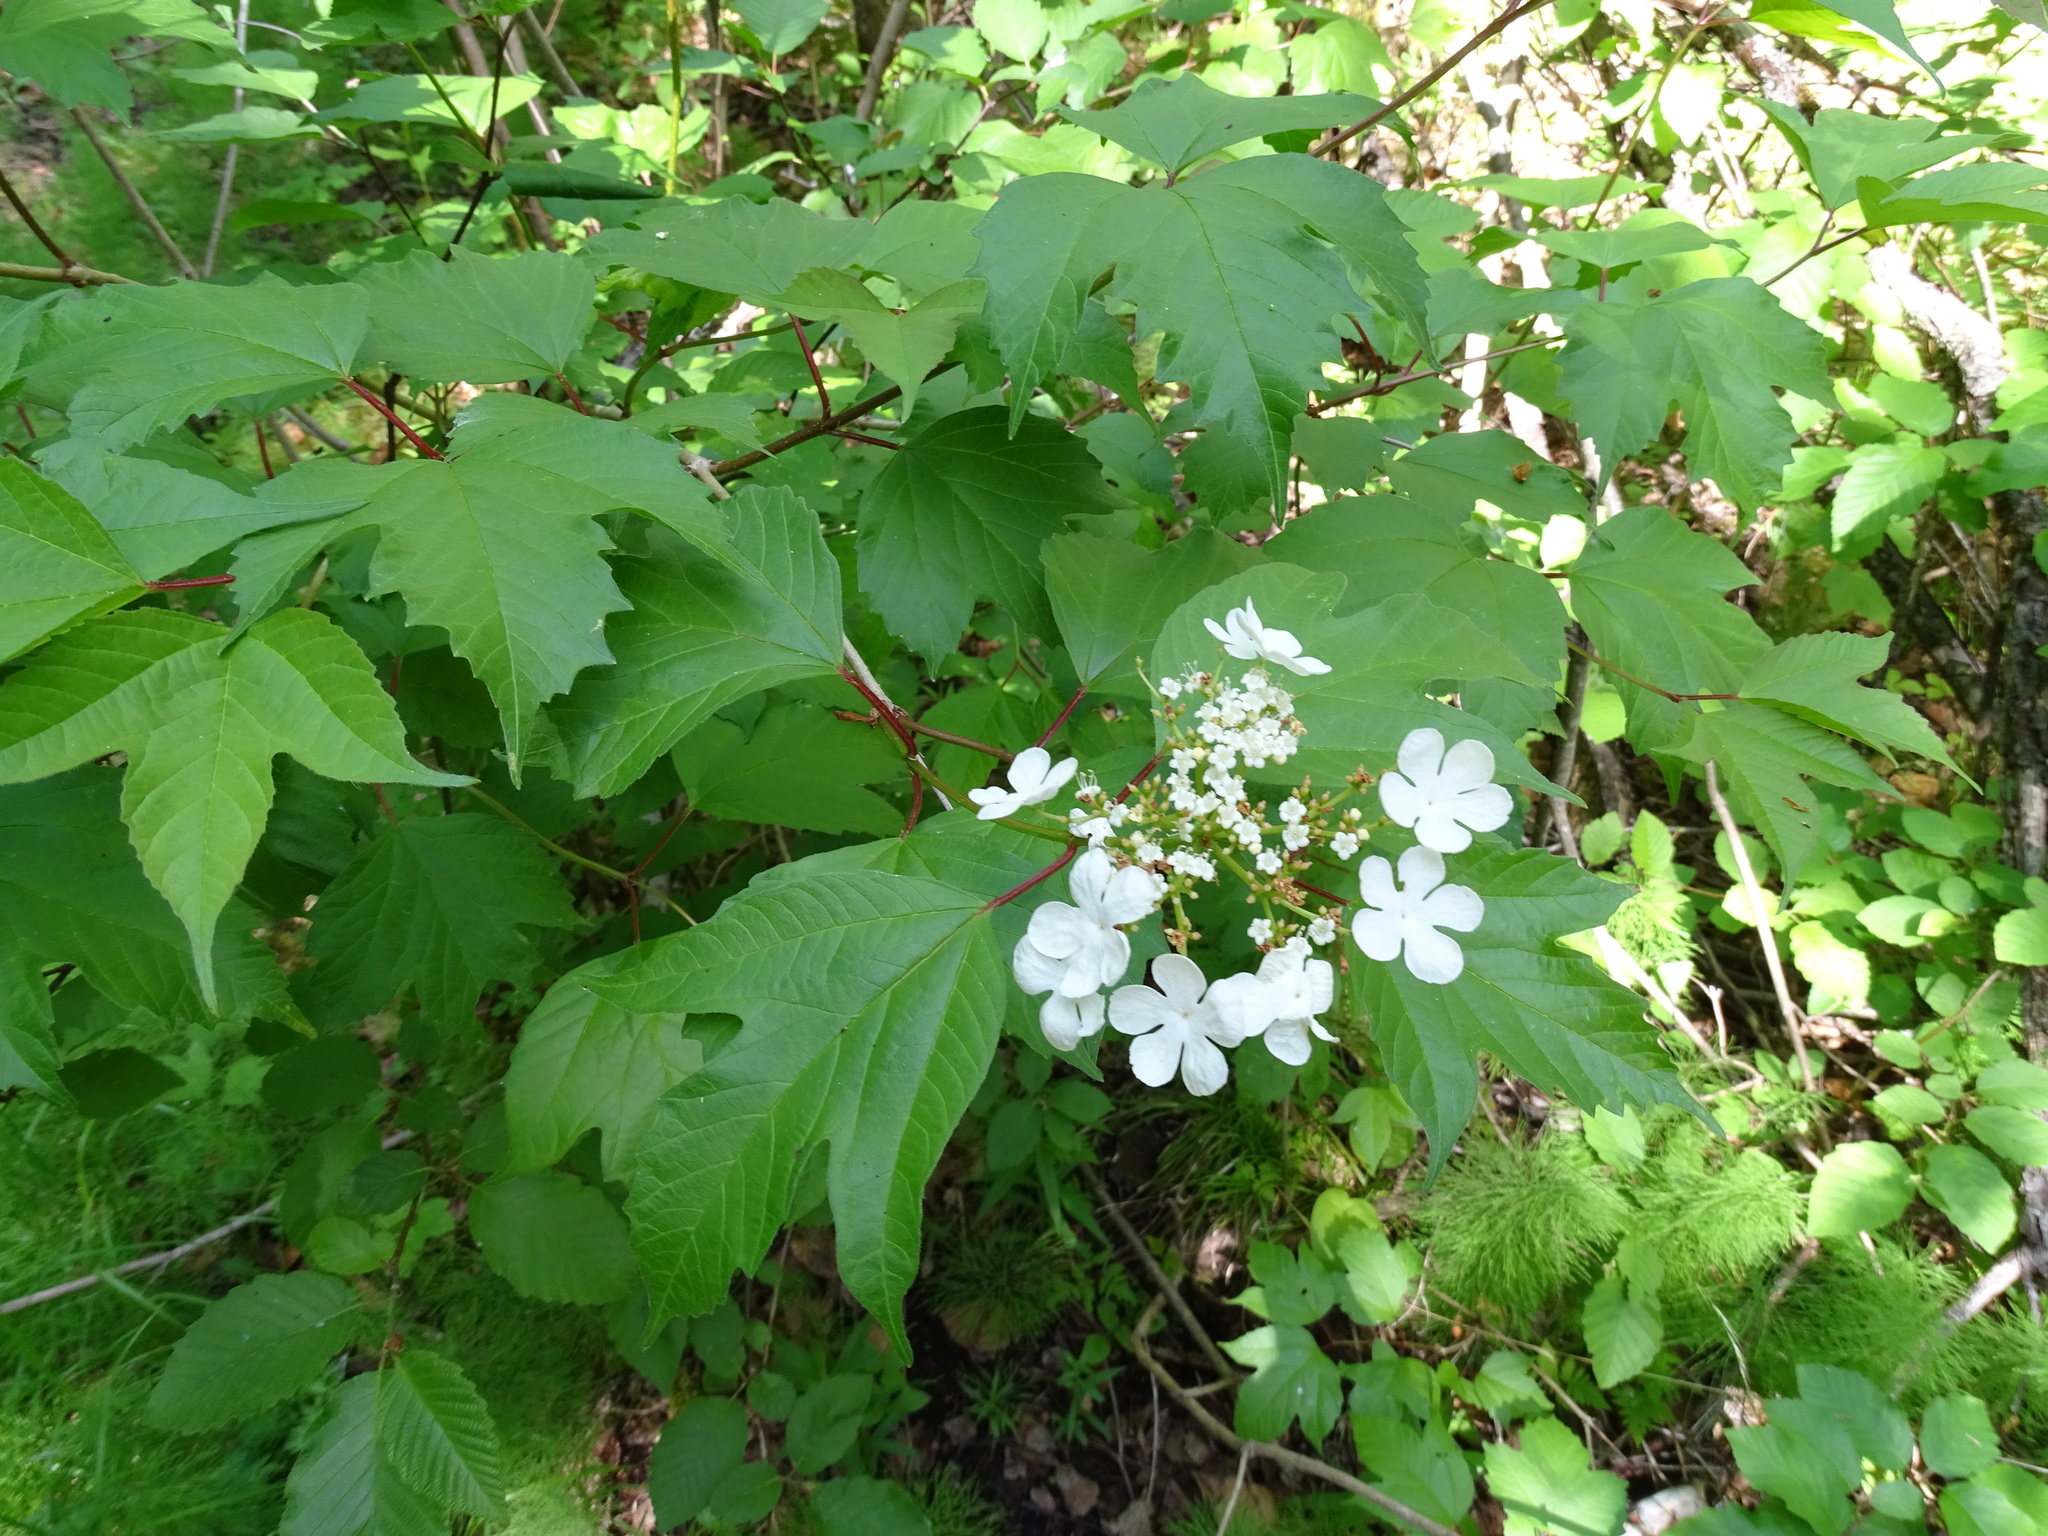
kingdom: Plantae
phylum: Tracheophyta
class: Magnoliopsida
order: Dipsacales
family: Viburnaceae
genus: Viburnum
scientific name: Viburnum trilobum
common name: American cranberrybush
